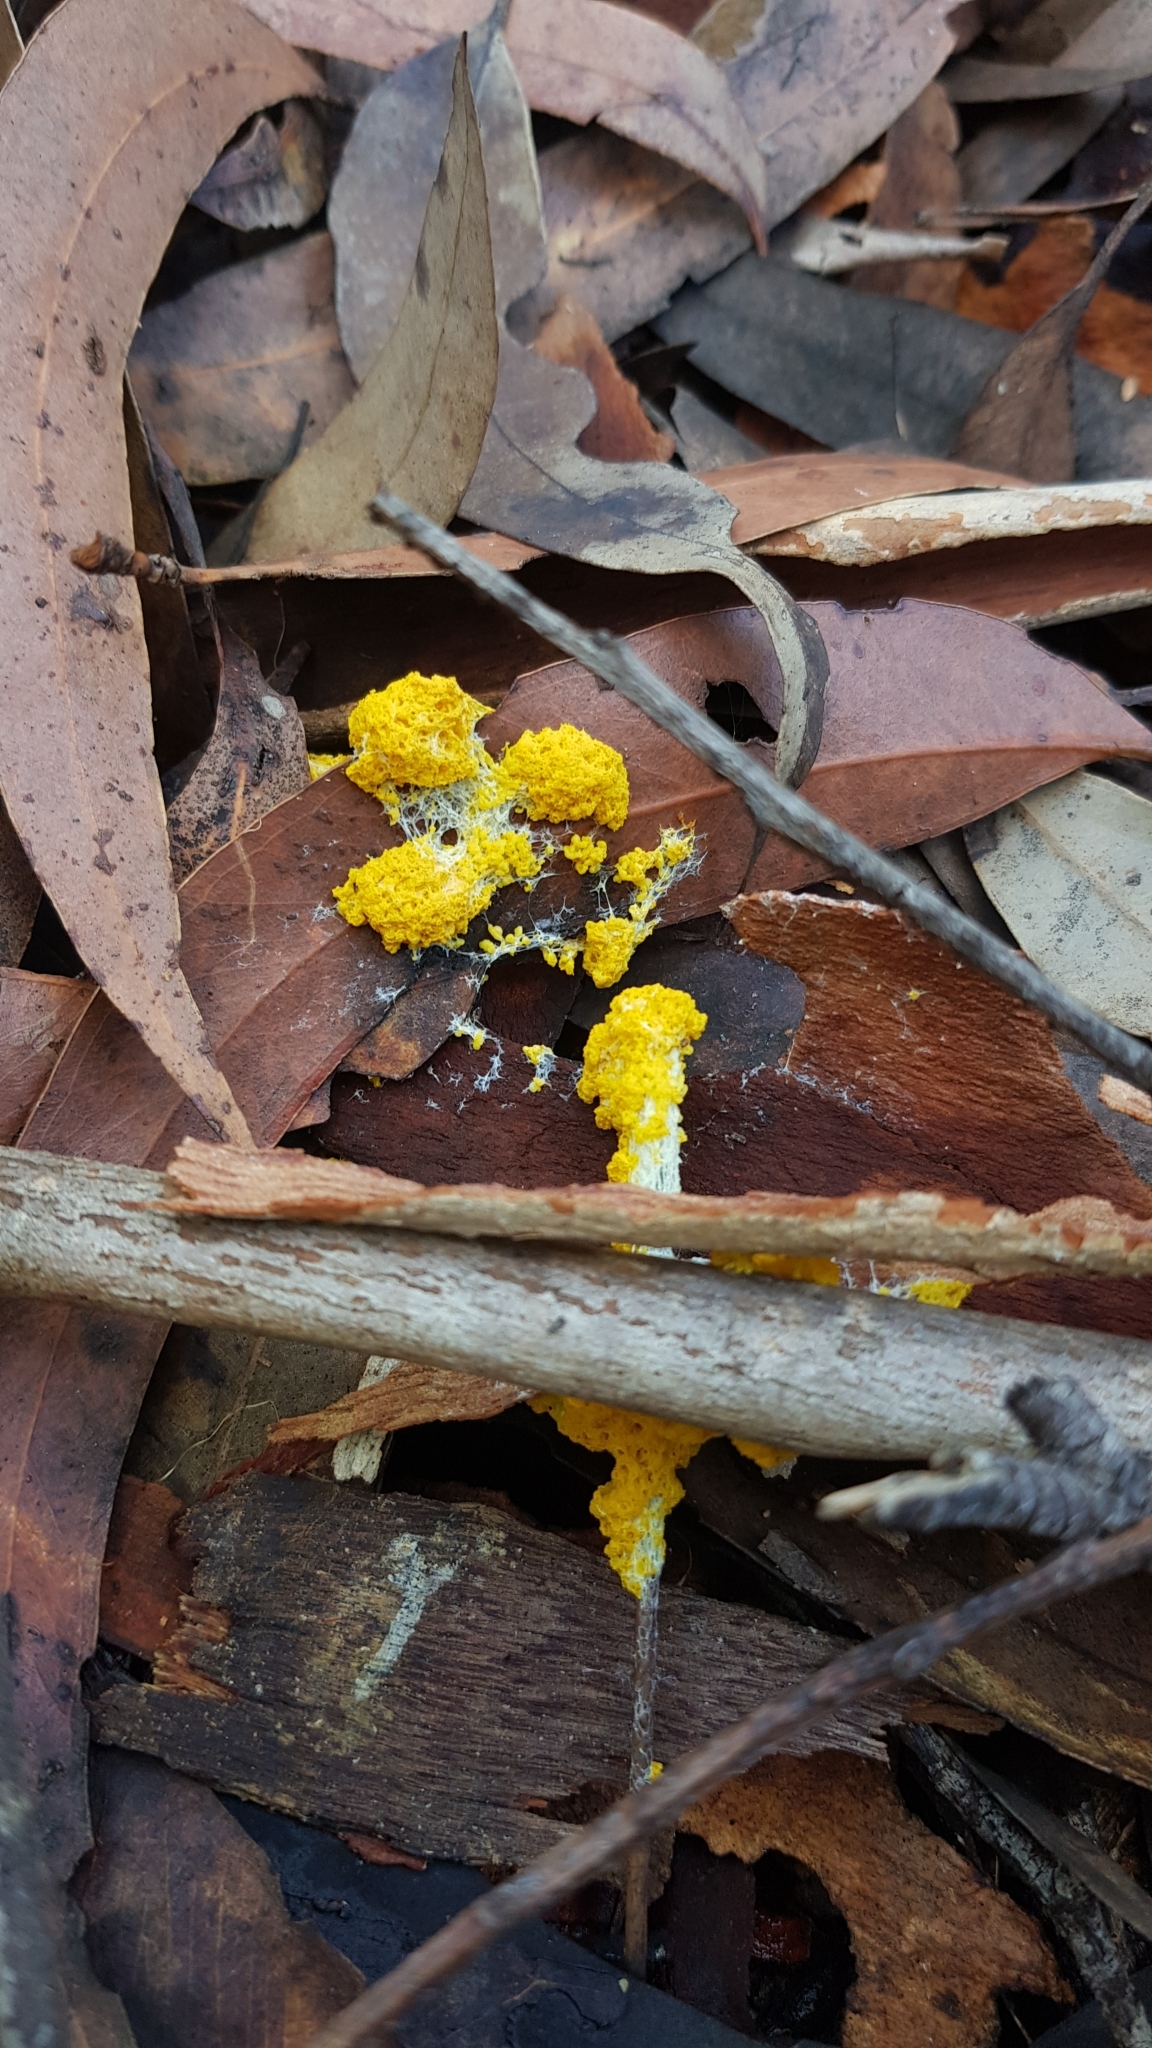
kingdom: Protozoa
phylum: Mycetozoa
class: Myxomycetes
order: Physarales
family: Physaraceae
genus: Fuligo
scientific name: Fuligo septica
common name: Dog vomit slime mold
